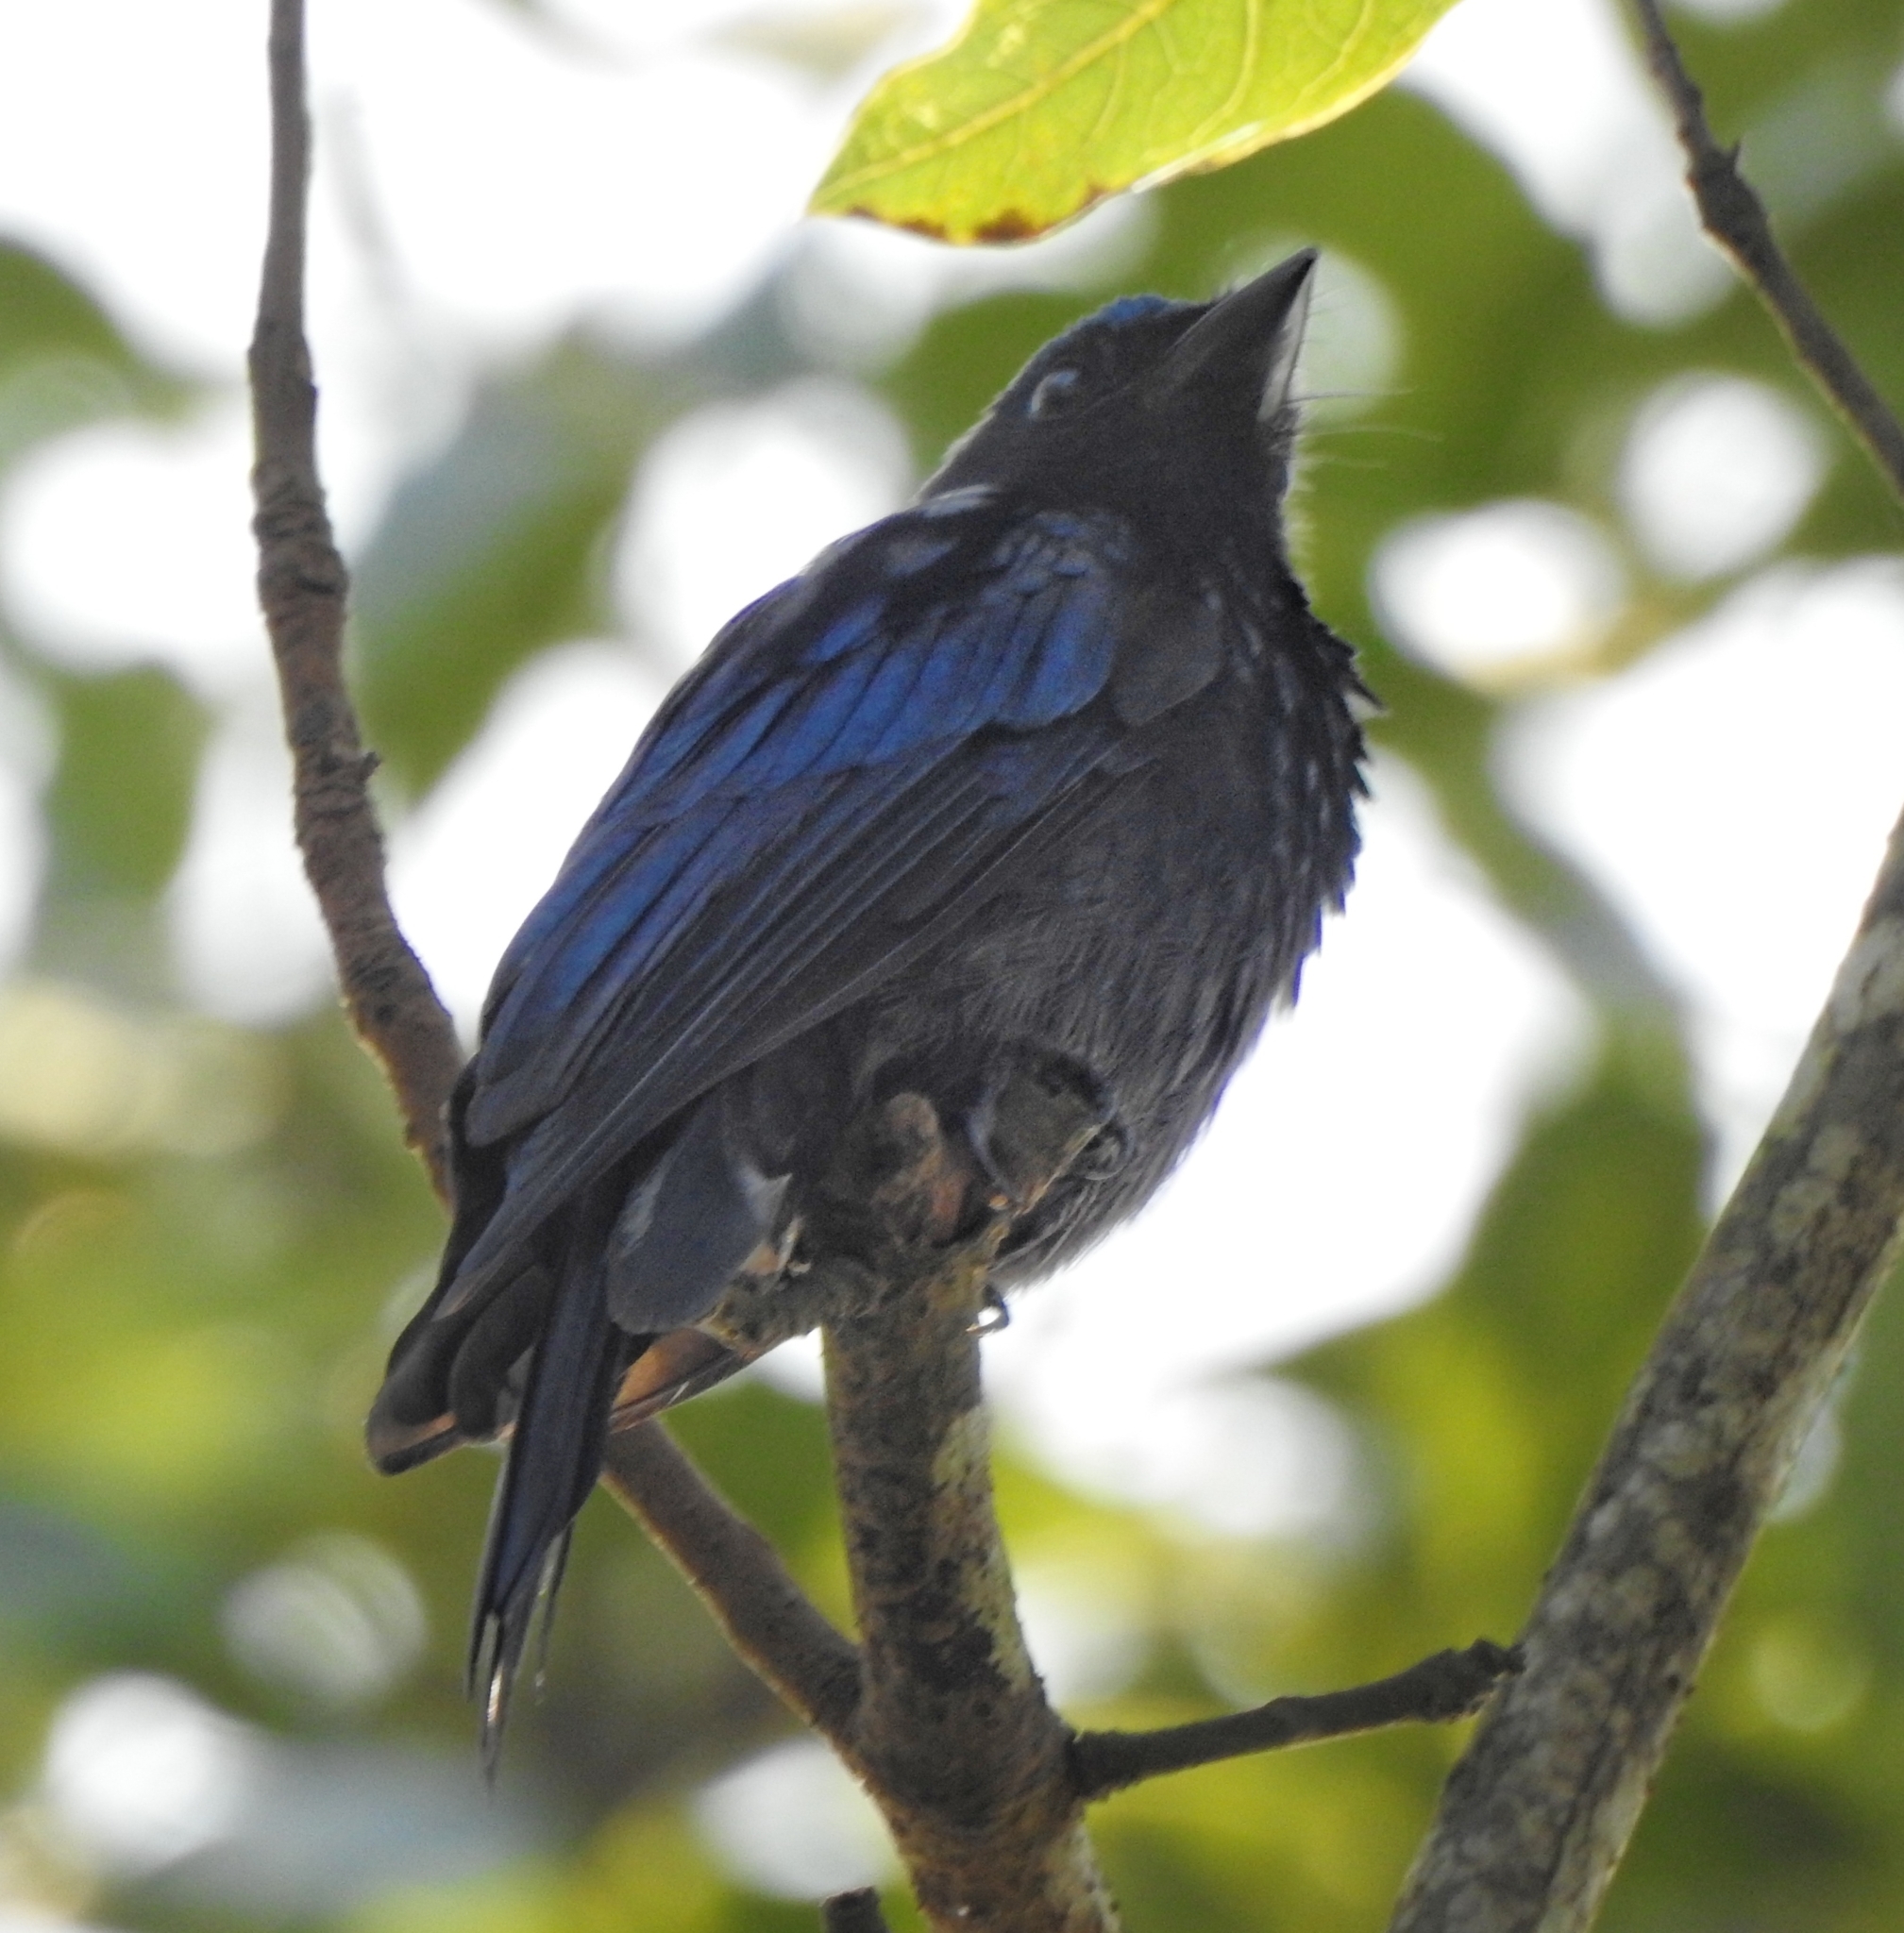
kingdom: Animalia
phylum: Chordata
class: Aves
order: Passeriformes
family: Dicruridae
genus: Dicrurus
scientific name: Dicrurus aeneus
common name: Bronzed drongo
